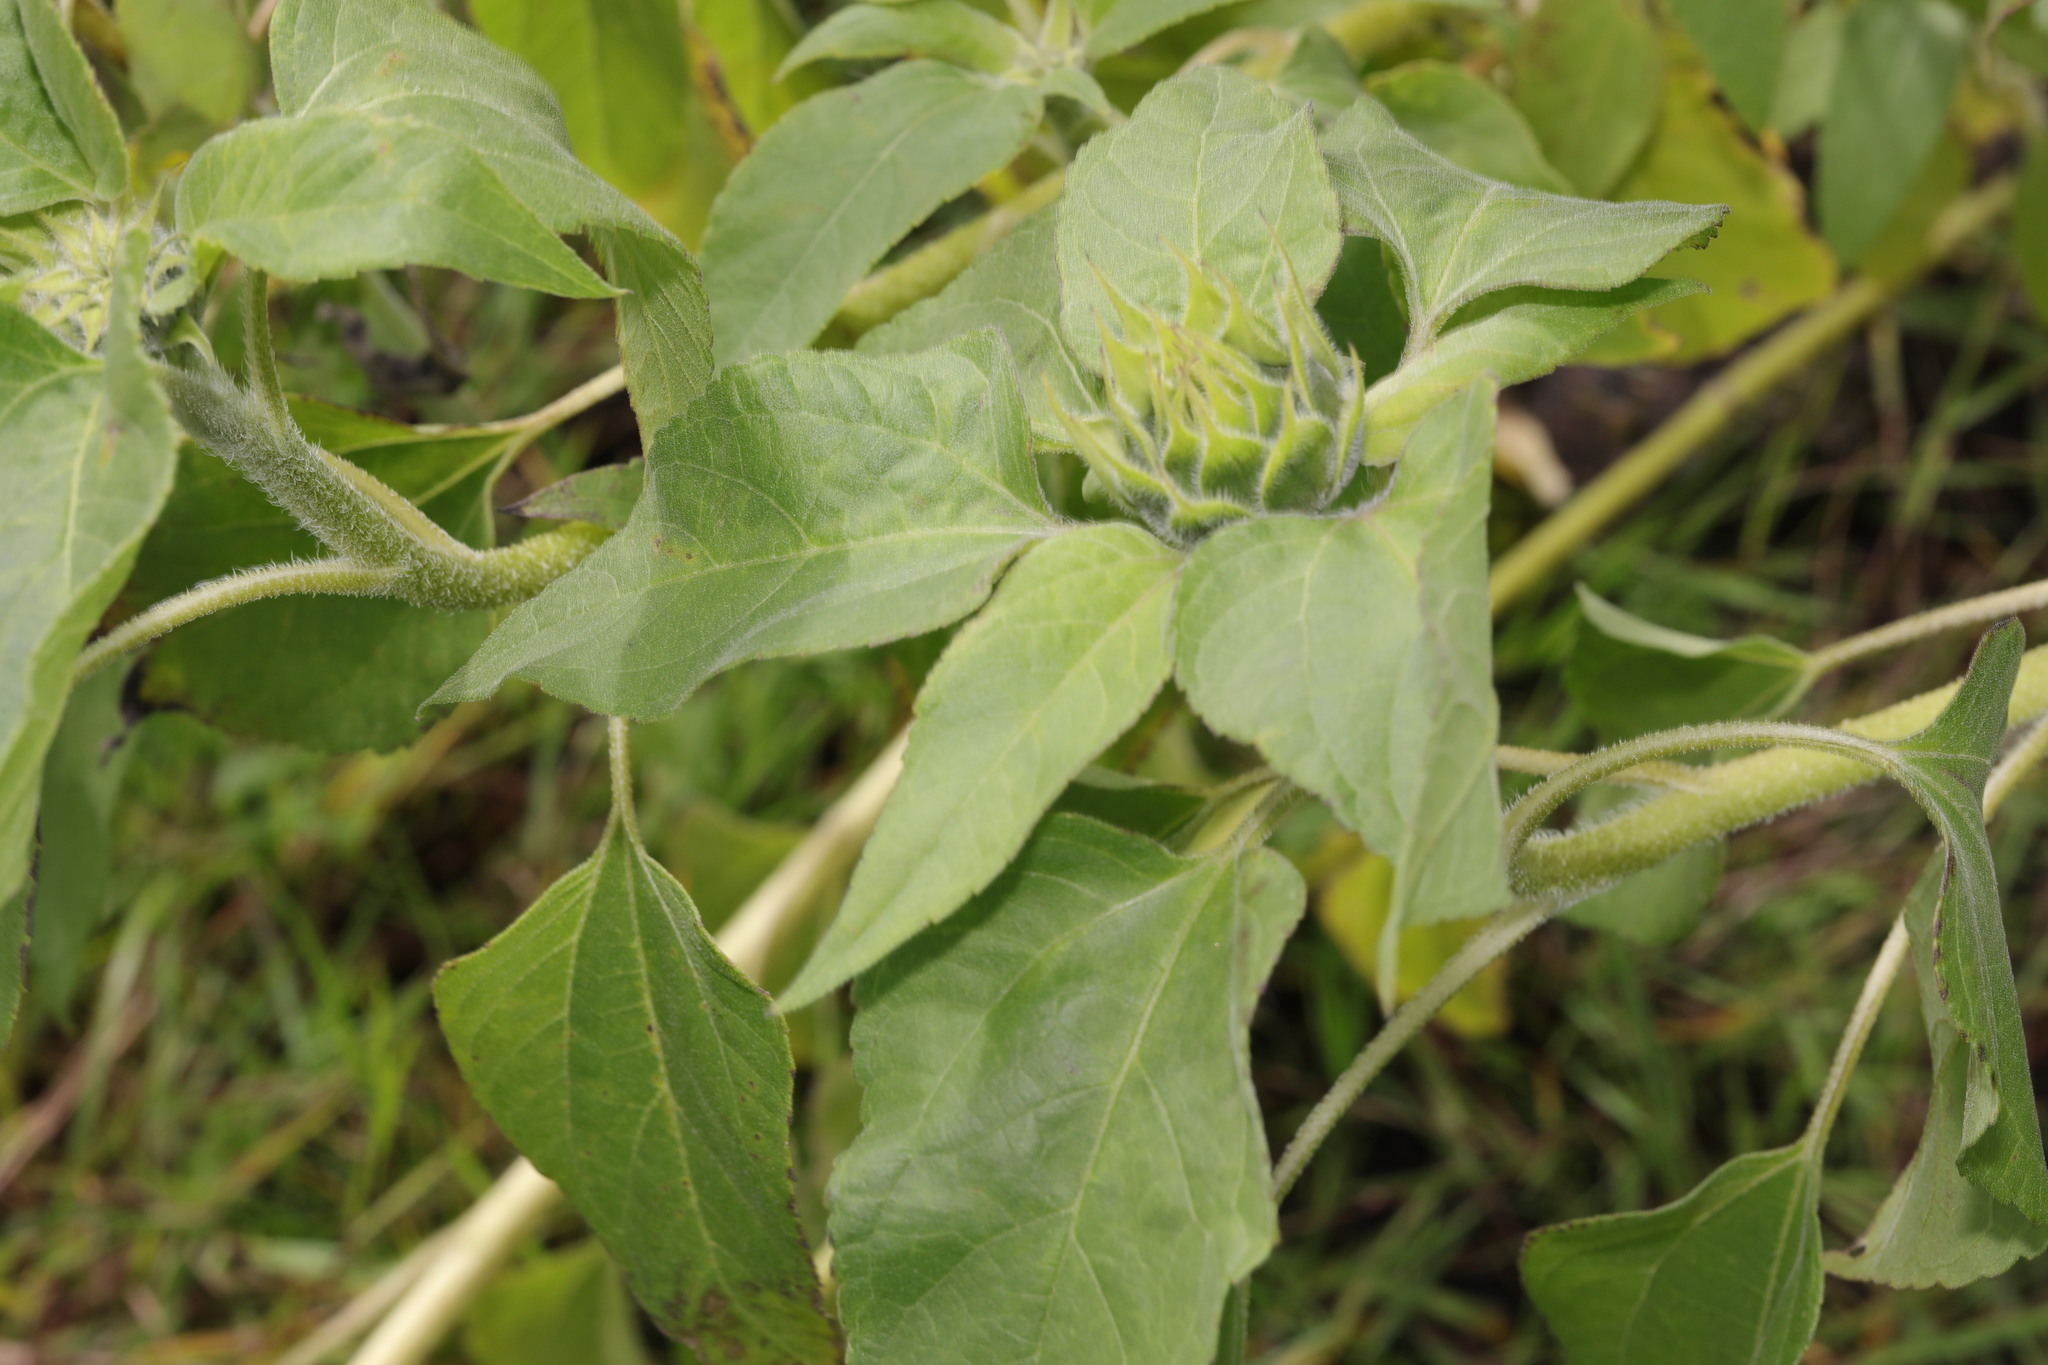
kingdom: Plantae
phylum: Tracheophyta
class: Magnoliopsida
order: Asterales
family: Asteraceae
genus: Helianthus
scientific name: Helianthus annuus
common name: Sunflower
